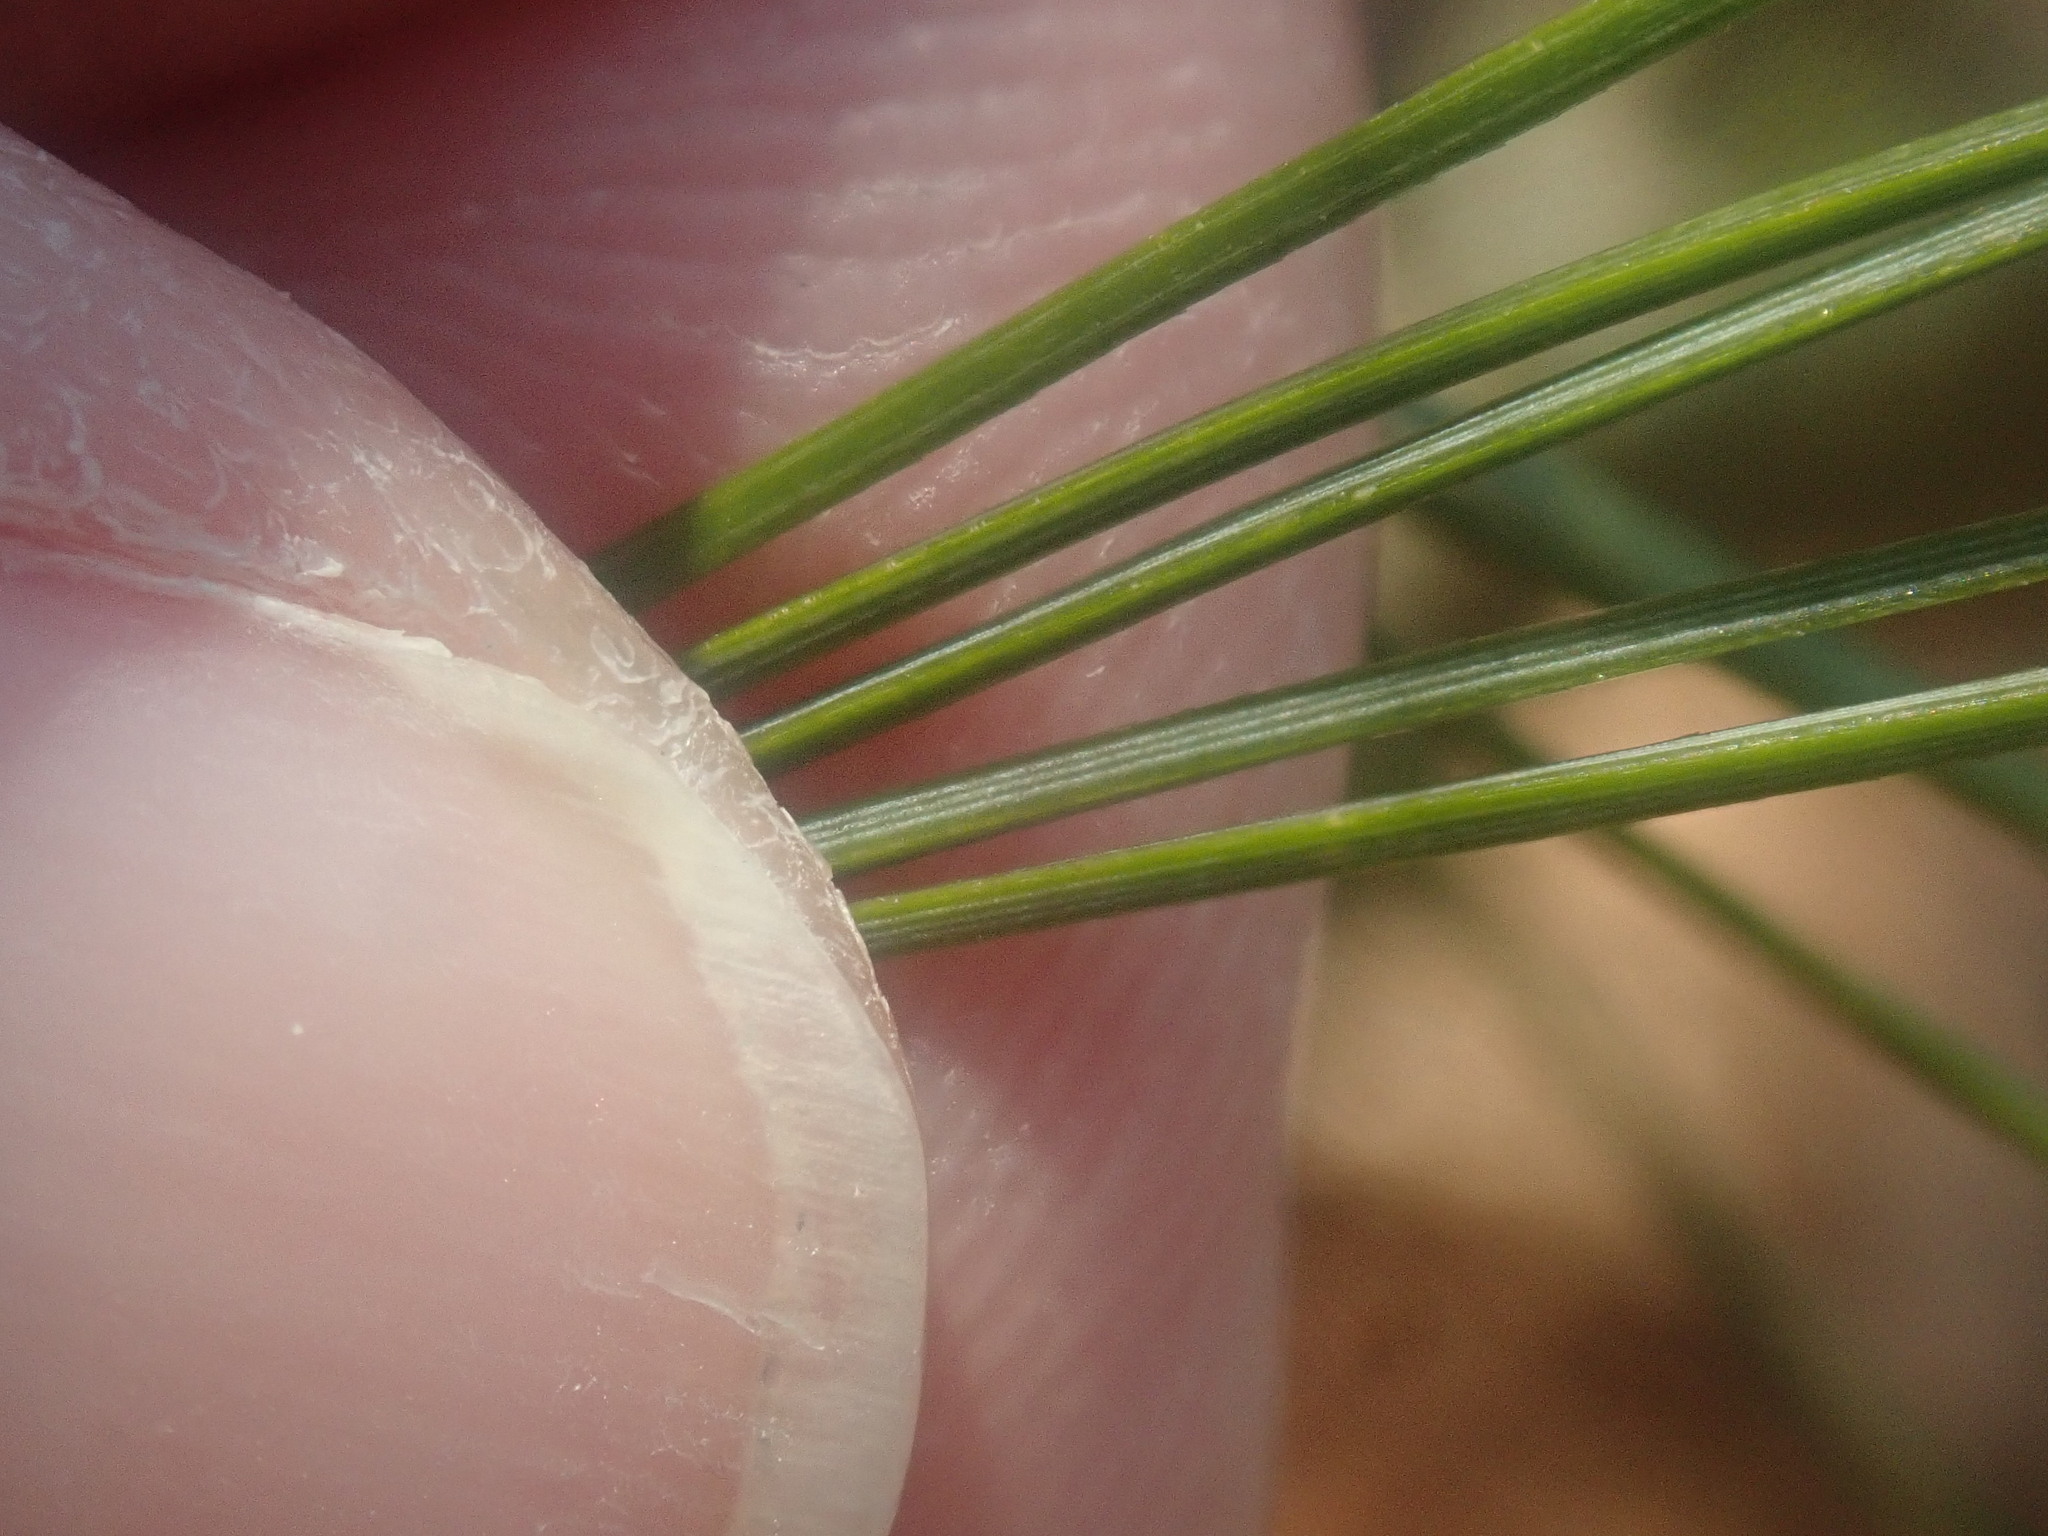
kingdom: Plantae
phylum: Tracheophyta
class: Pinopsida
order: Pinales
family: Pinaceae
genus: Pinus
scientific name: Pinus strobus
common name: Weymouth pine
